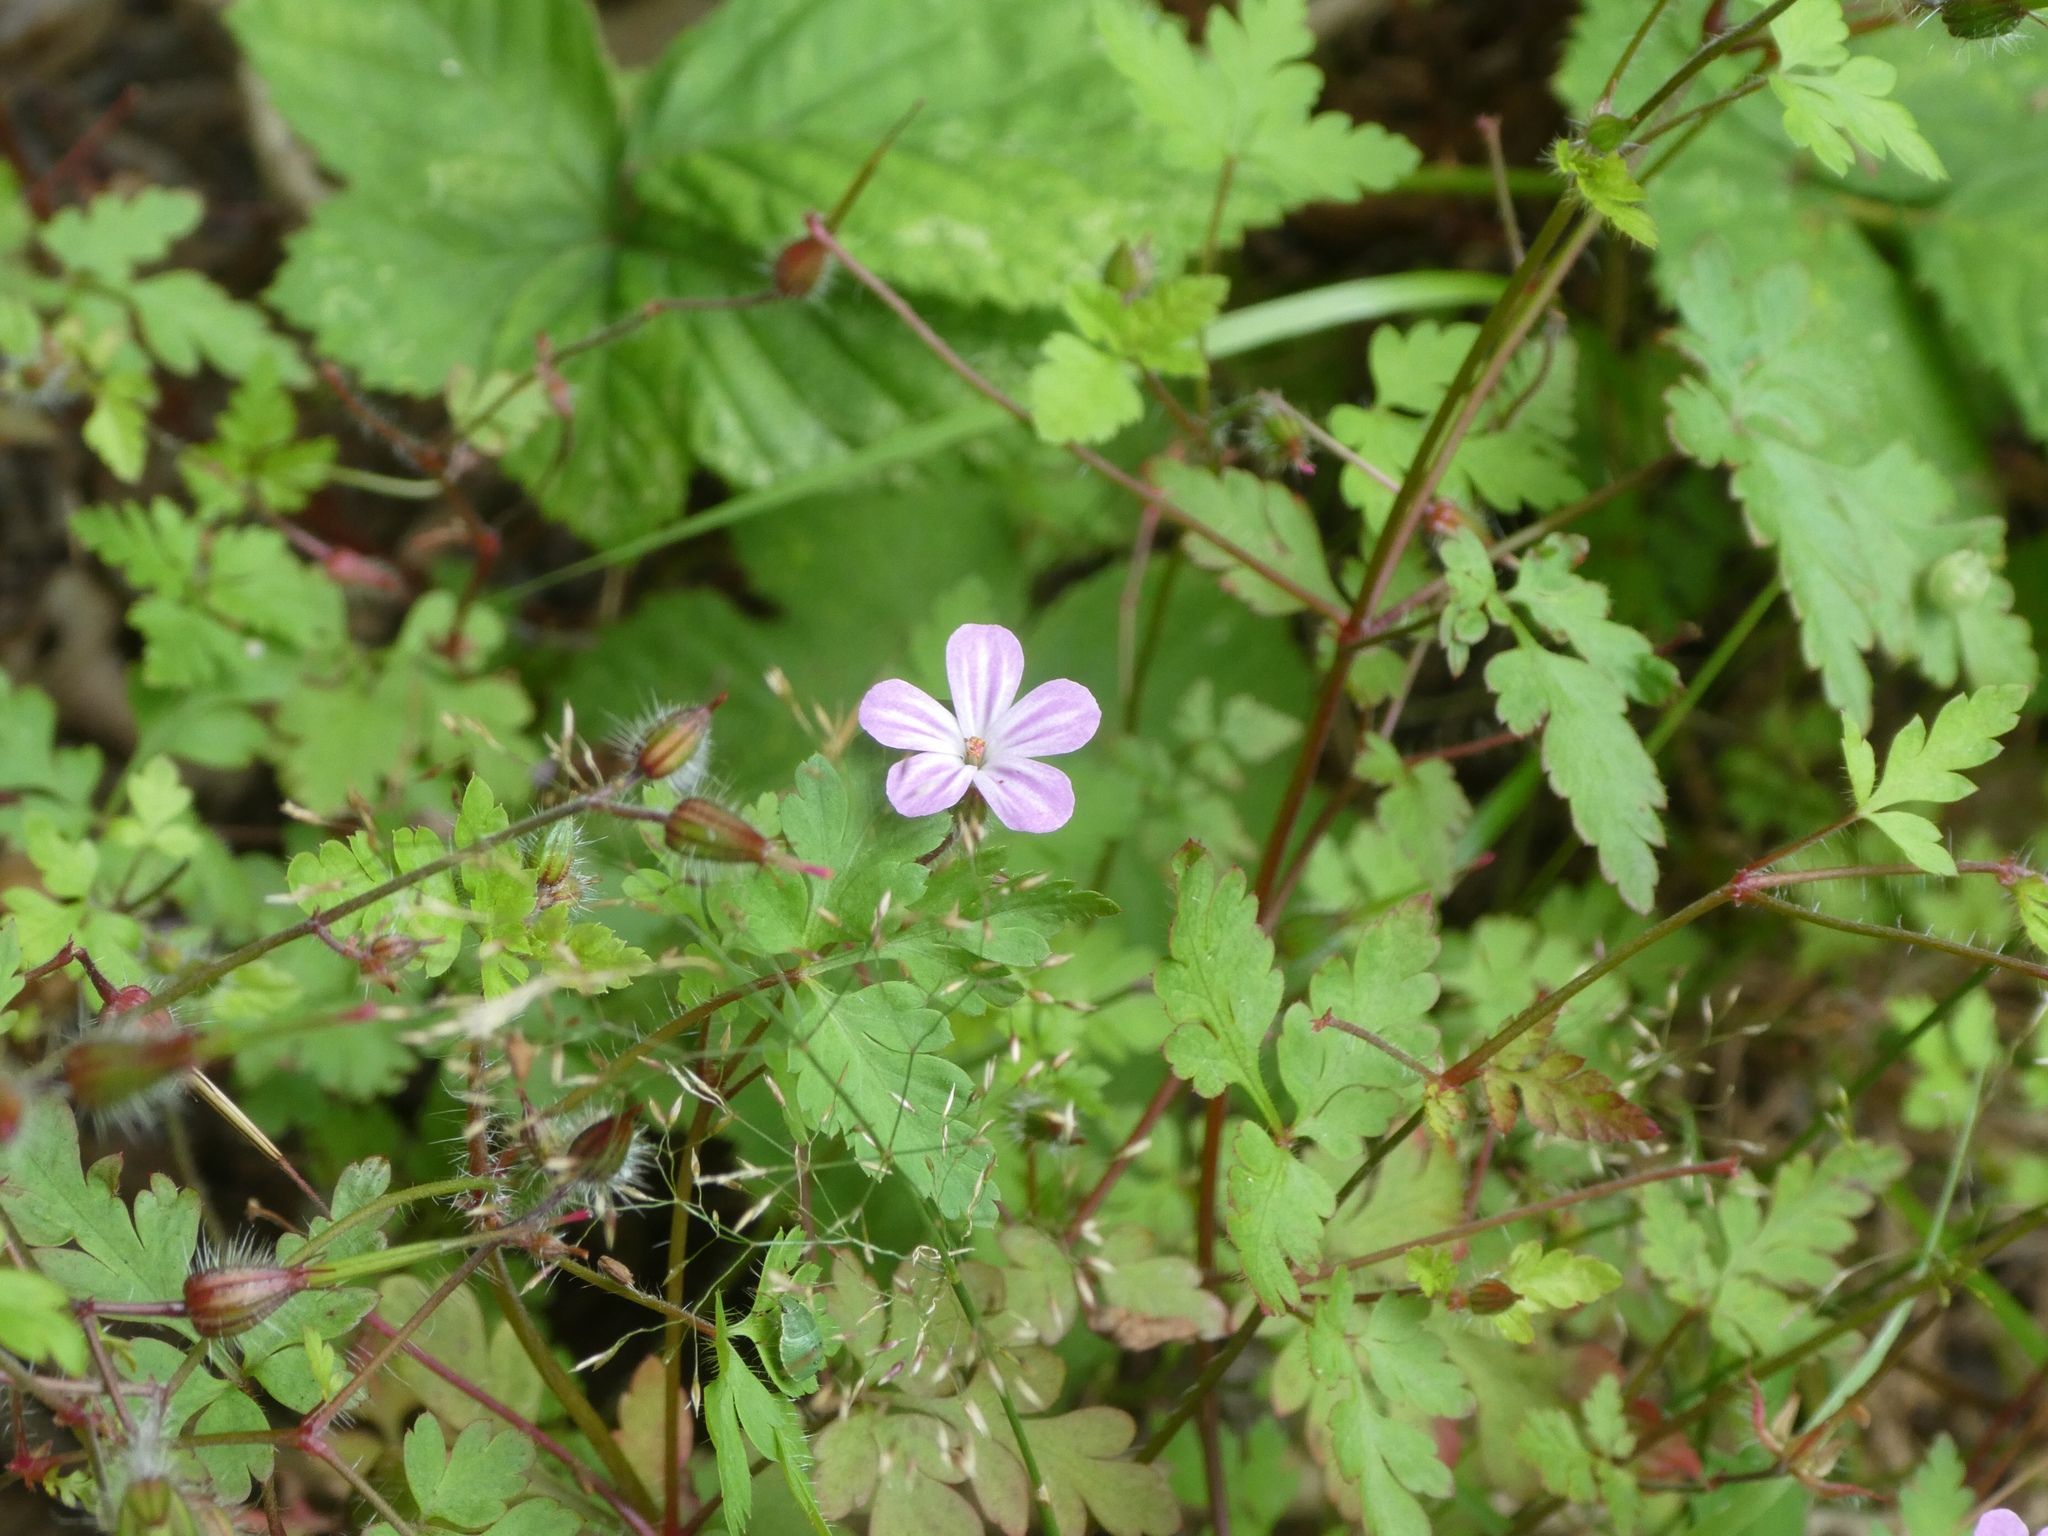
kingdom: Plantae
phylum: Tracheophyta
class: Magnoliopsida
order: Geraniales
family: Geraniaceae
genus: Geranium
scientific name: Geranium robertianum
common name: Herb-robert
